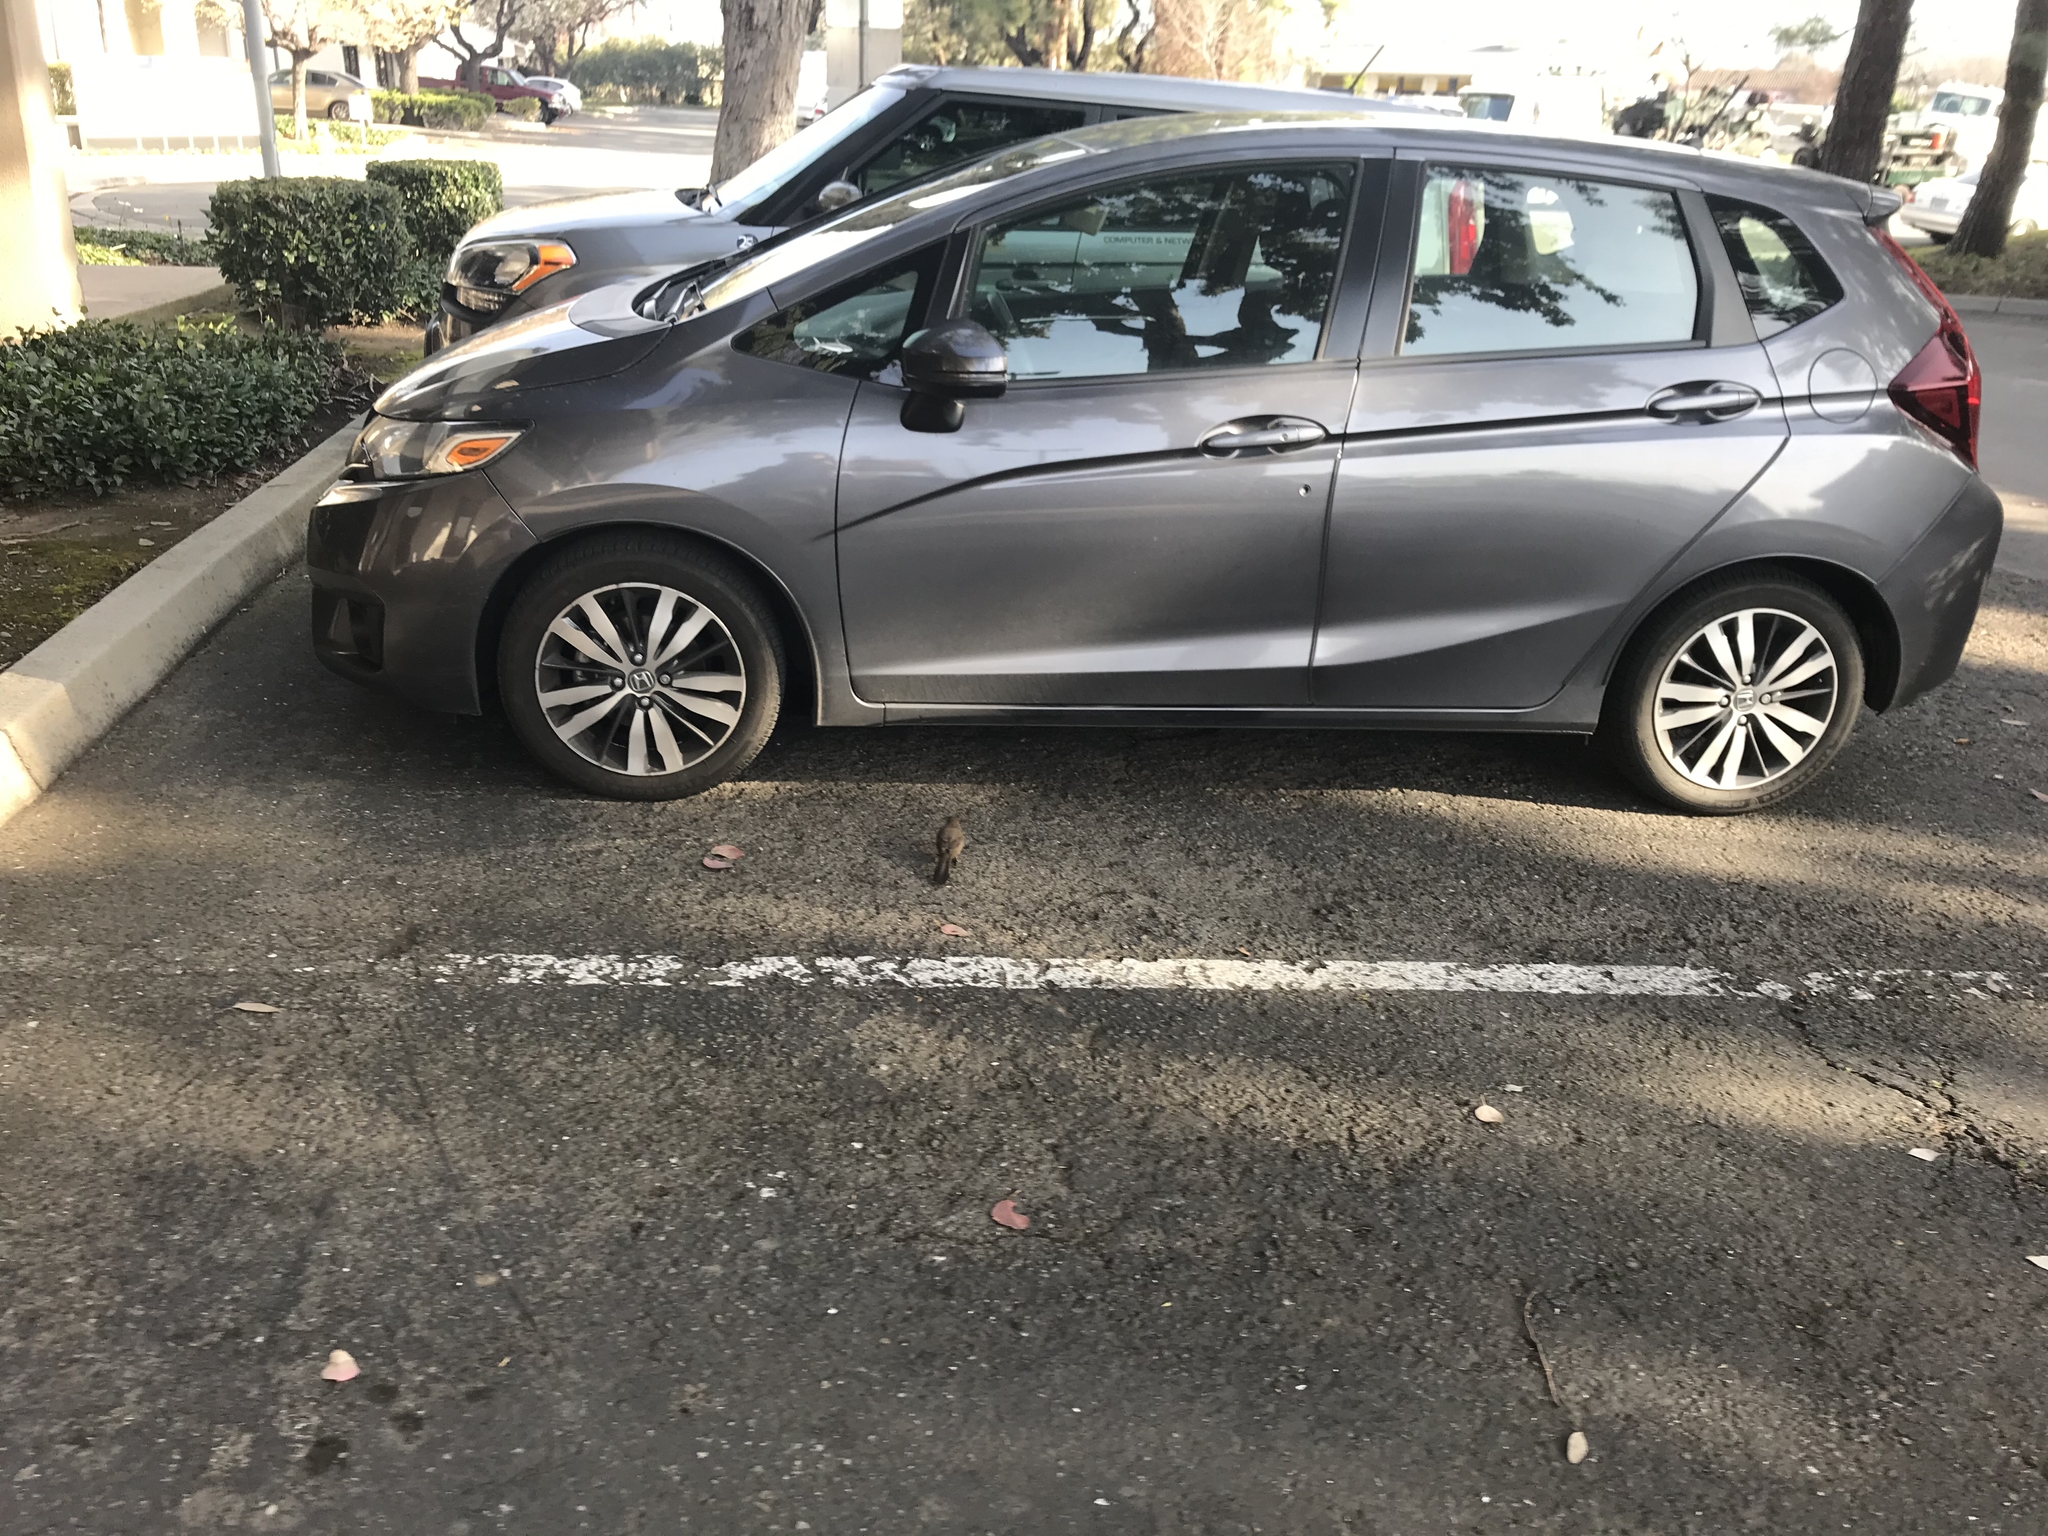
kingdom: Animalia
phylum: Chordata
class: Aves
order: Passeriformes
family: Passerellidae
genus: Melozone
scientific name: Melozone crissalis
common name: California towhee
